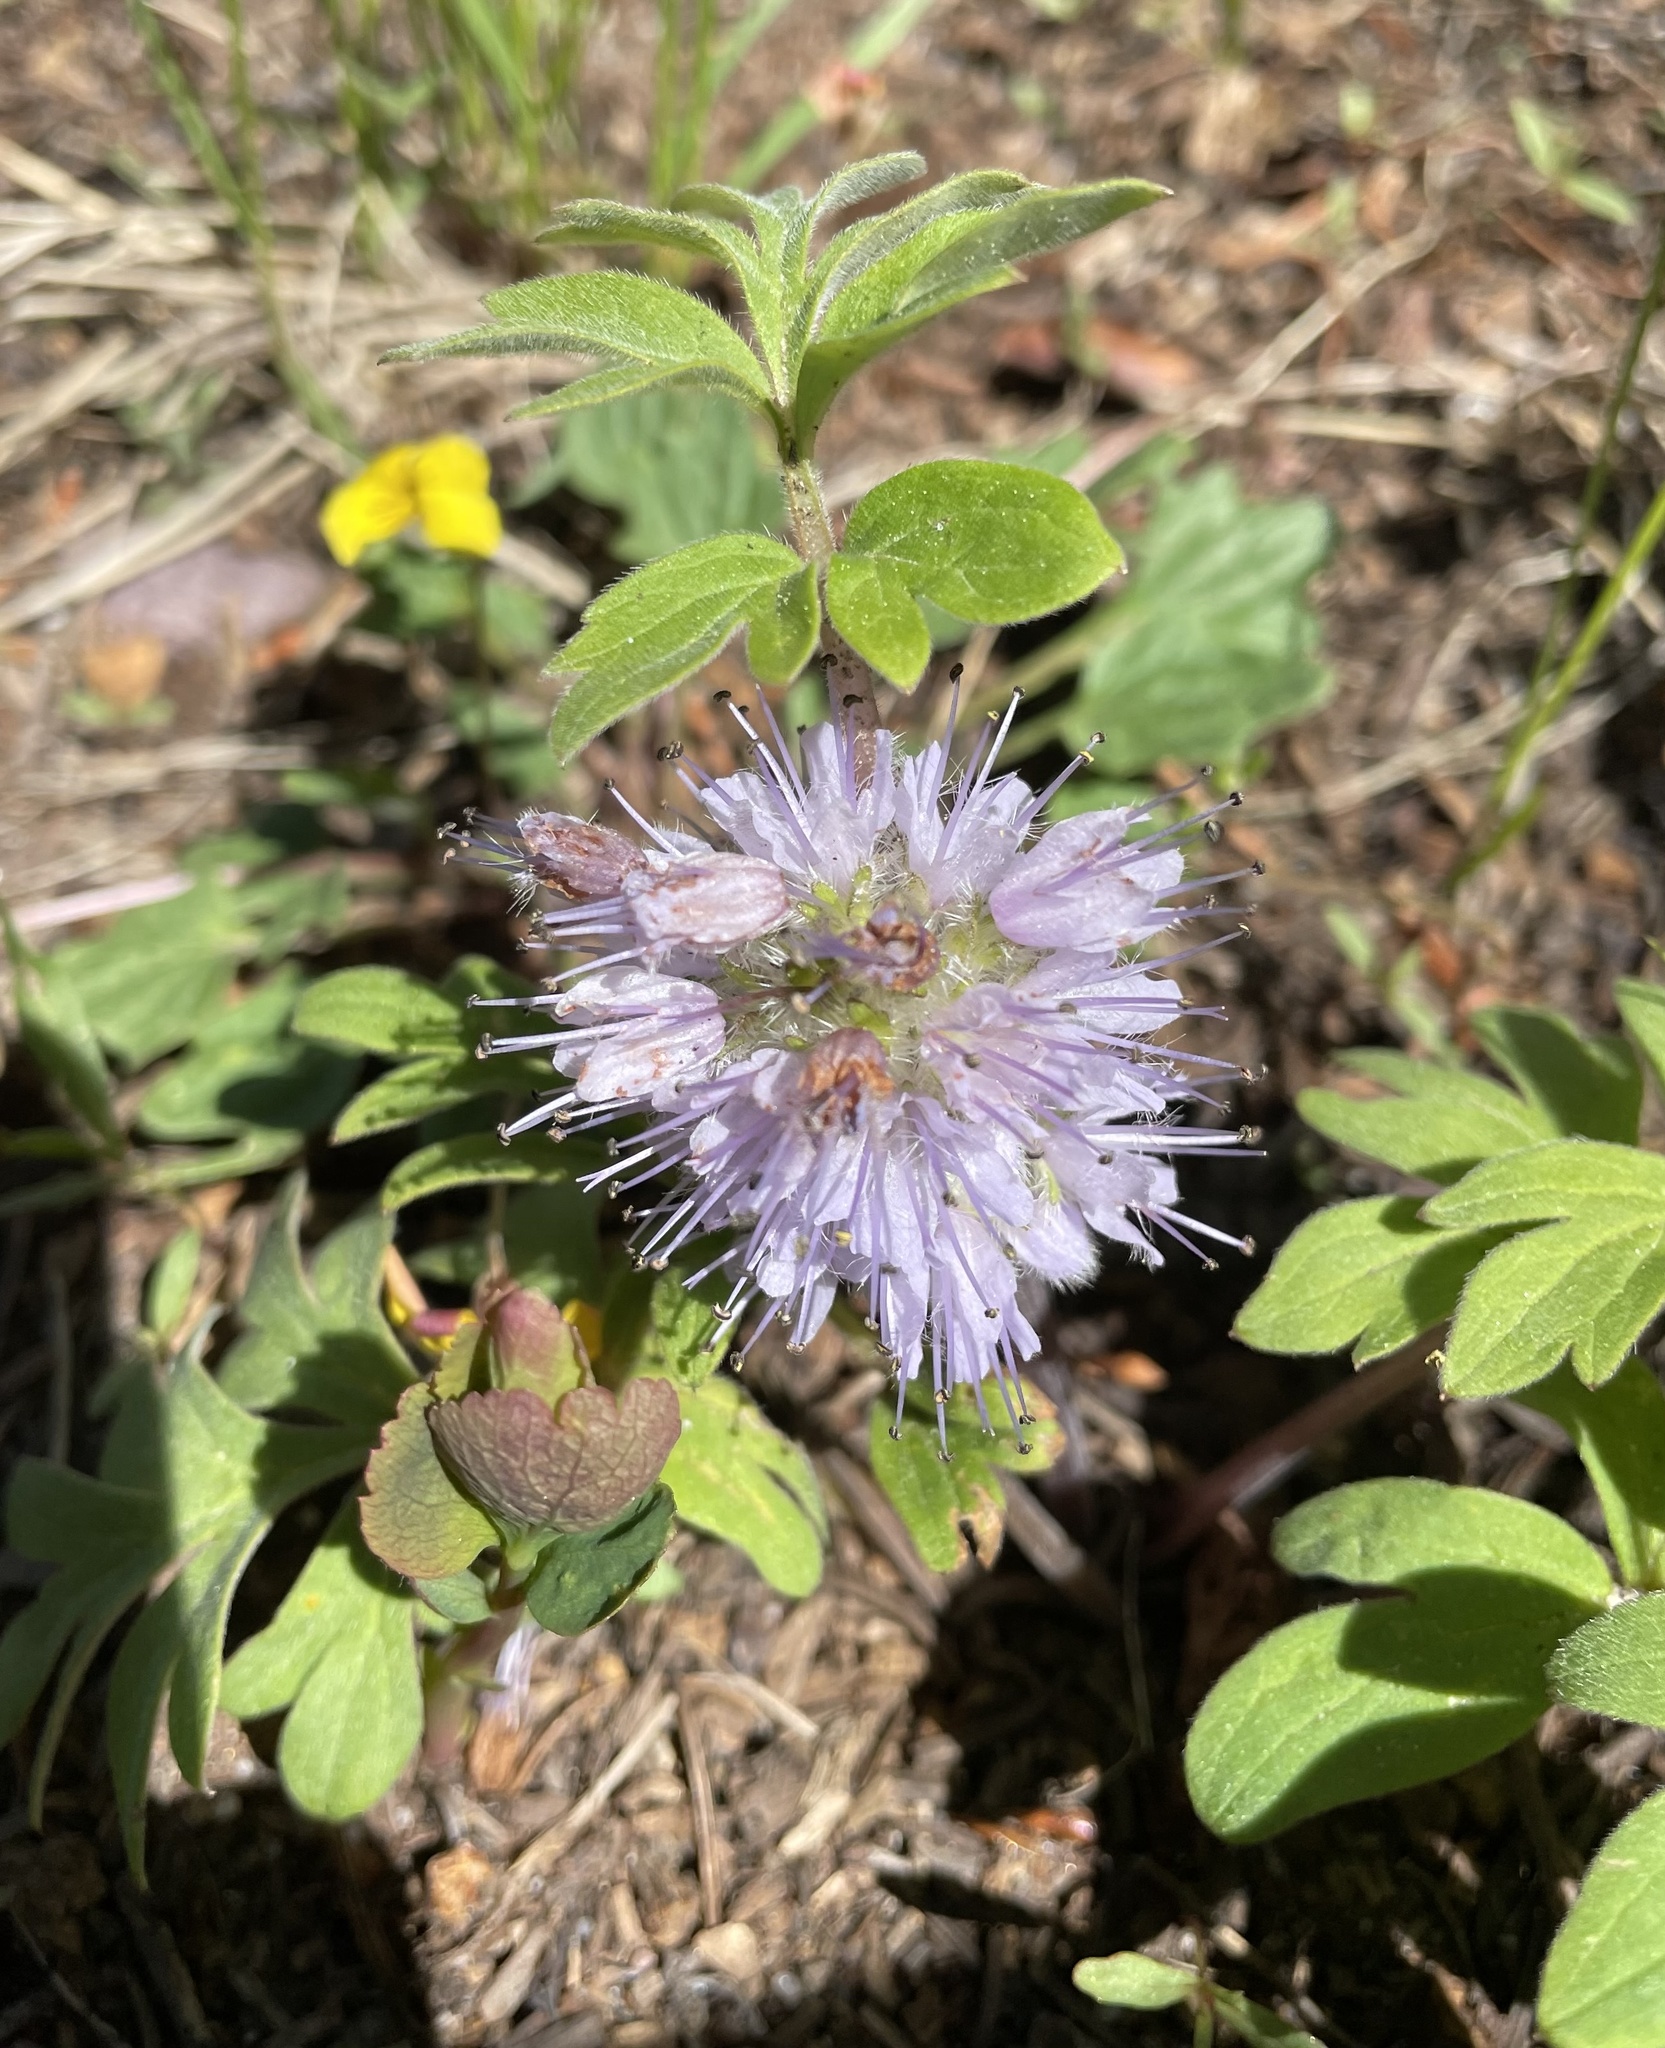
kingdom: Plantae
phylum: Tracheophyta
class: Magnoliopsida
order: Boraginales
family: Hydrophyllaceae
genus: Hydrophyllum
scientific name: Hydrophyllum capitatum
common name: Woollen-breeches
